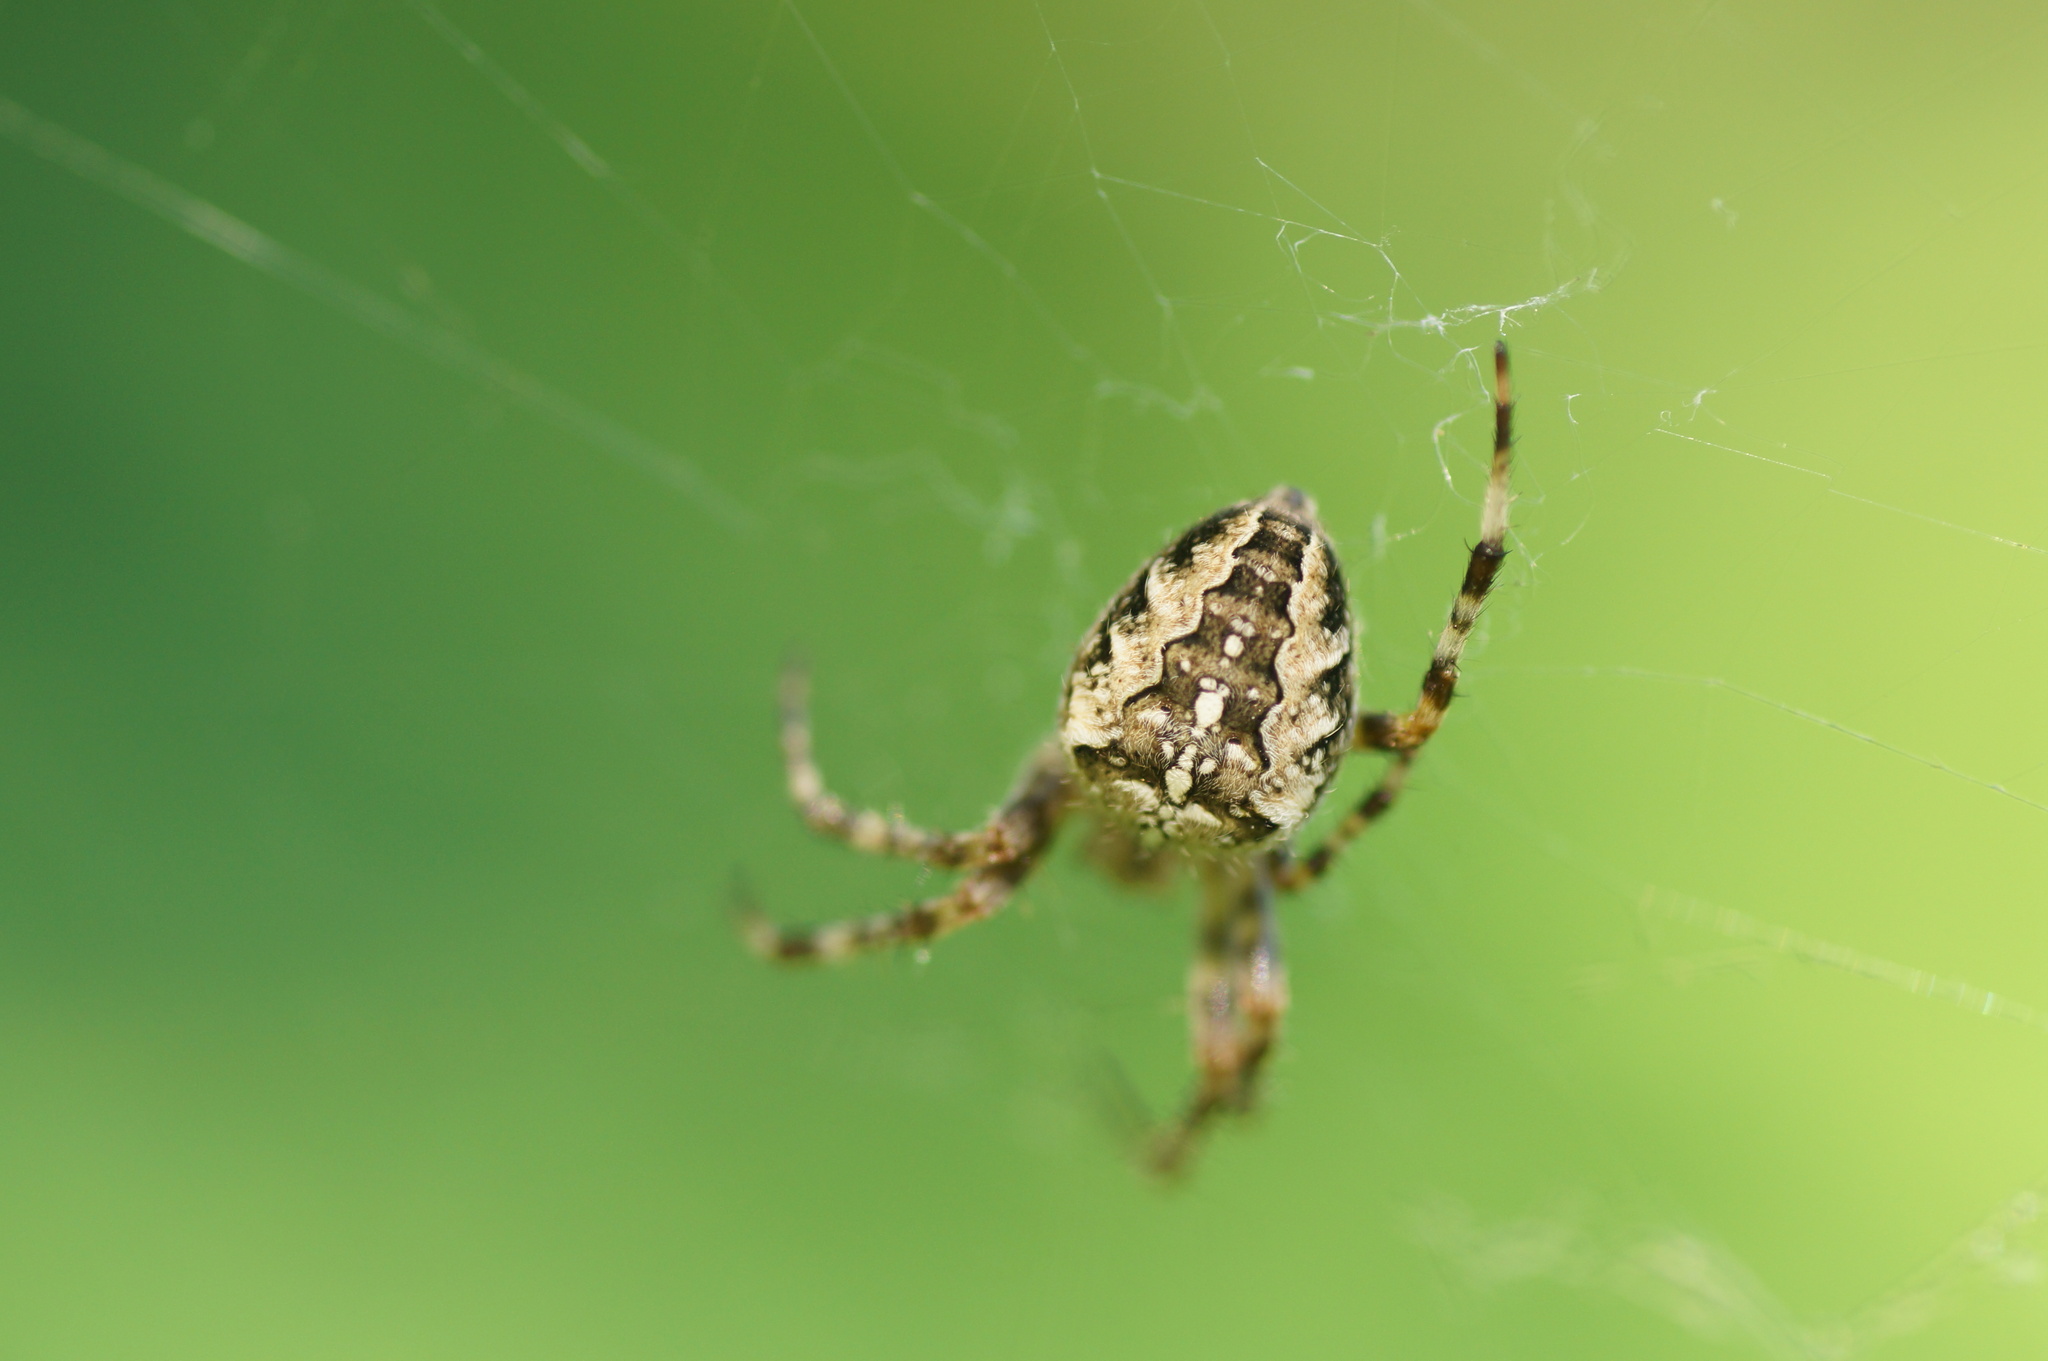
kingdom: Animalia
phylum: Arthropoda
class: Arachnida
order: Araneae
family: Araneidae
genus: Araneus
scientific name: Araneus diadematus
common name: Cross orbweaver
